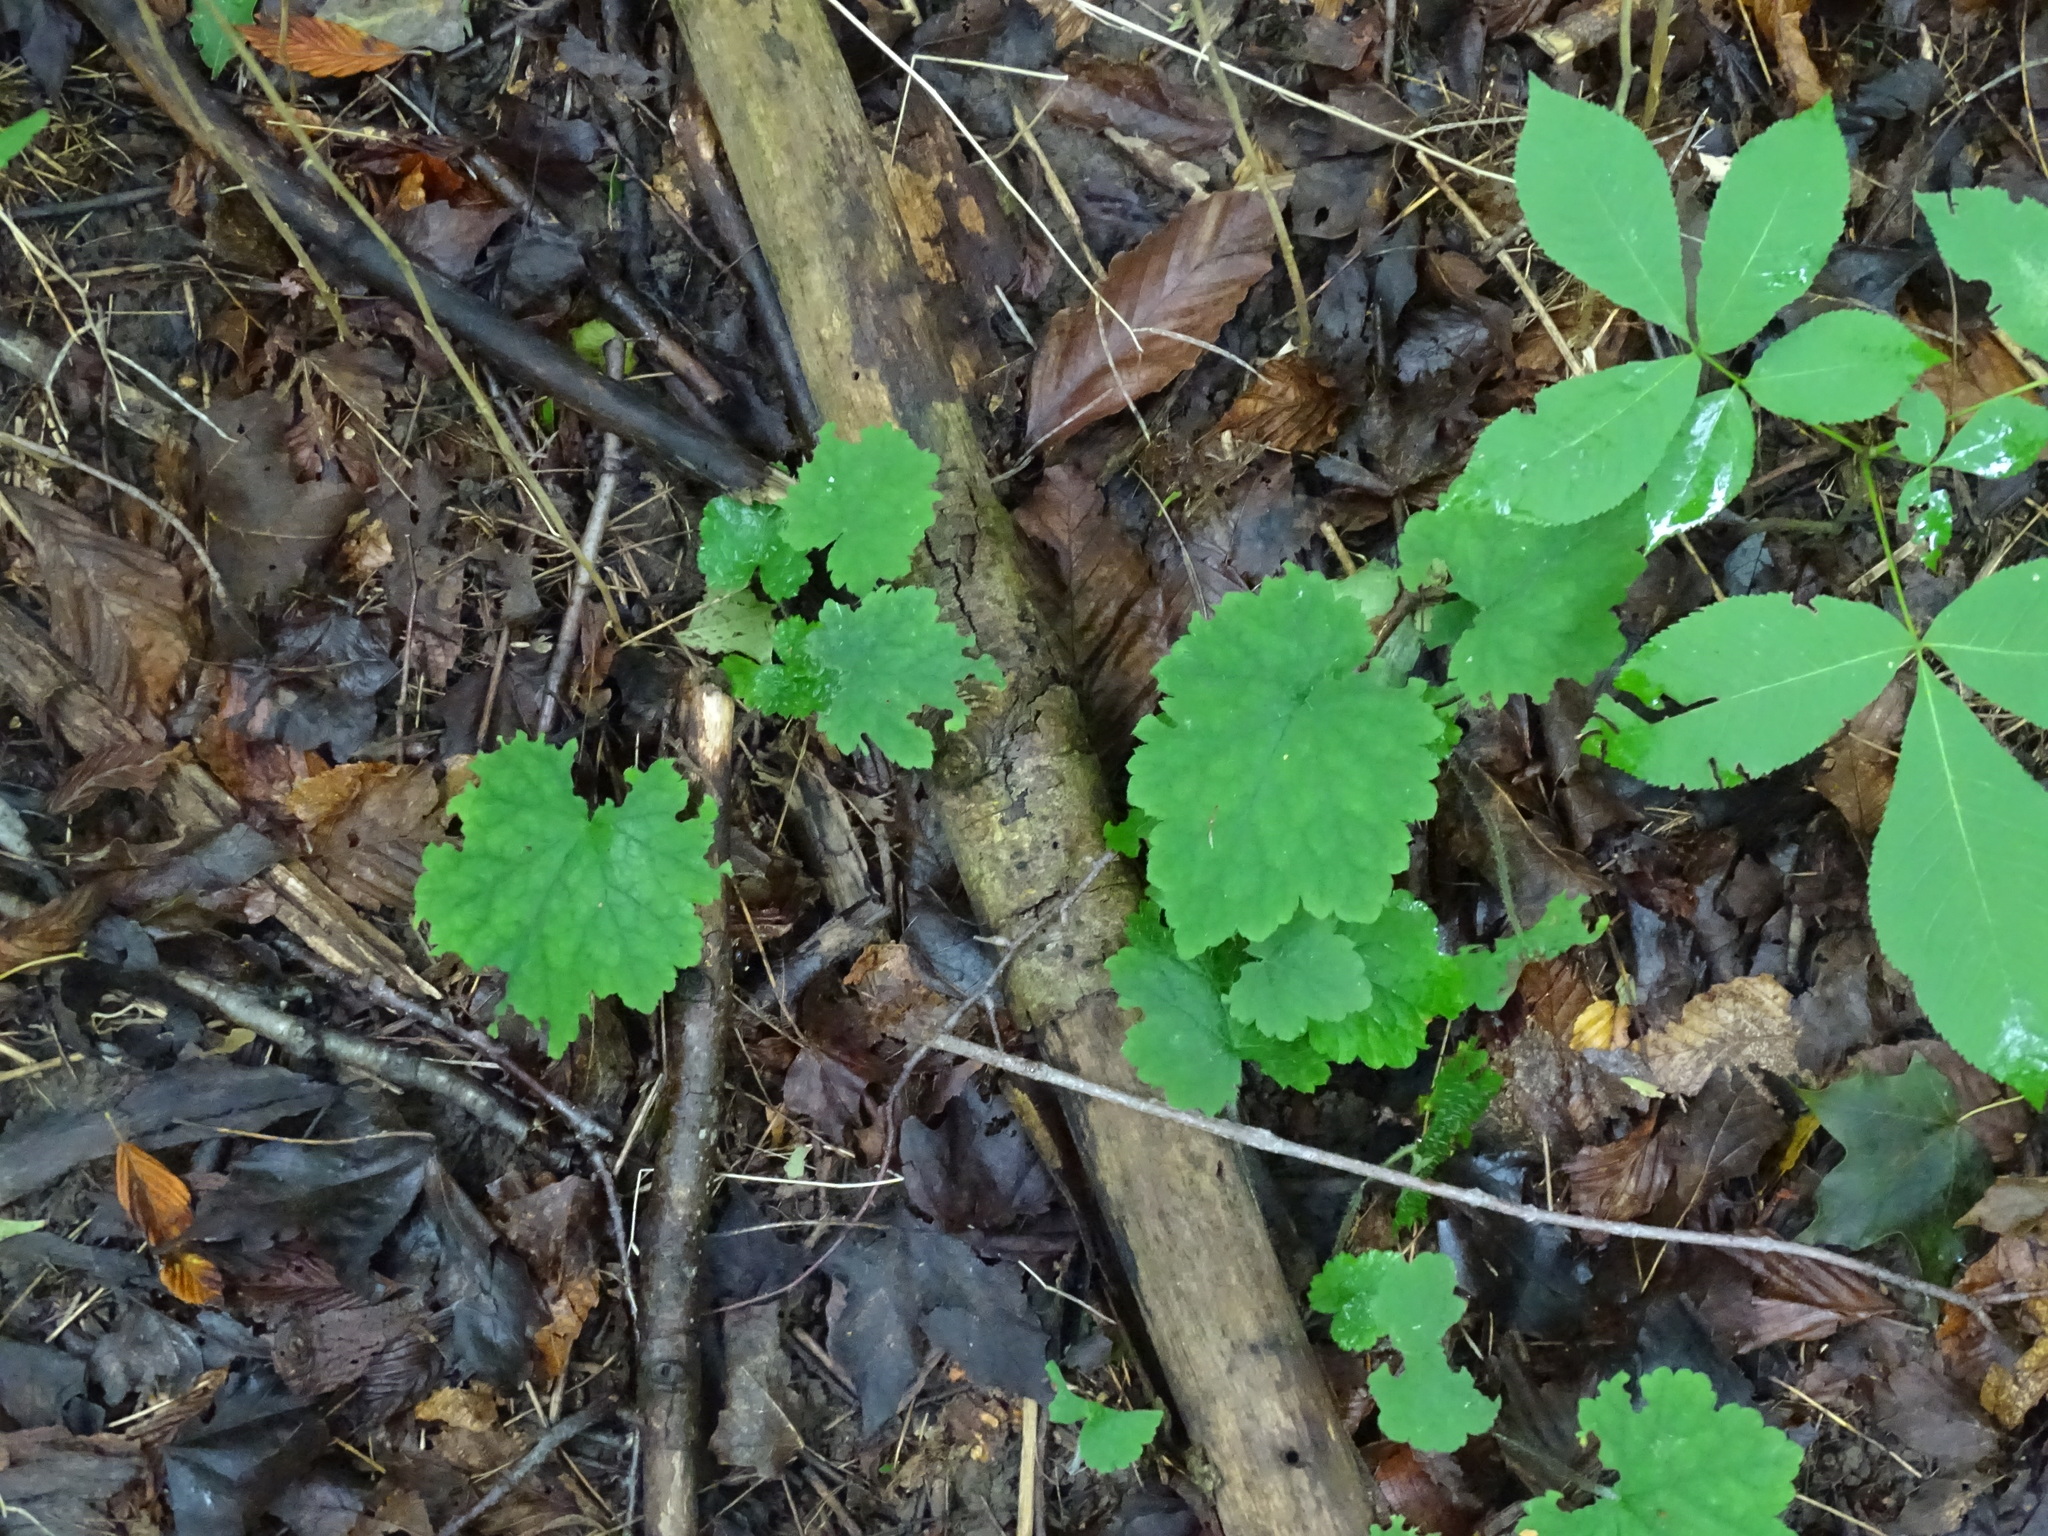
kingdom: Plantae
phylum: Tracheophyta
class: Magnoliopsida
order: Saxifragales
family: Saxifragaceae
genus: Tiarella
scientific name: Tiarella stolonifera
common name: Stoloniferous foamflower
